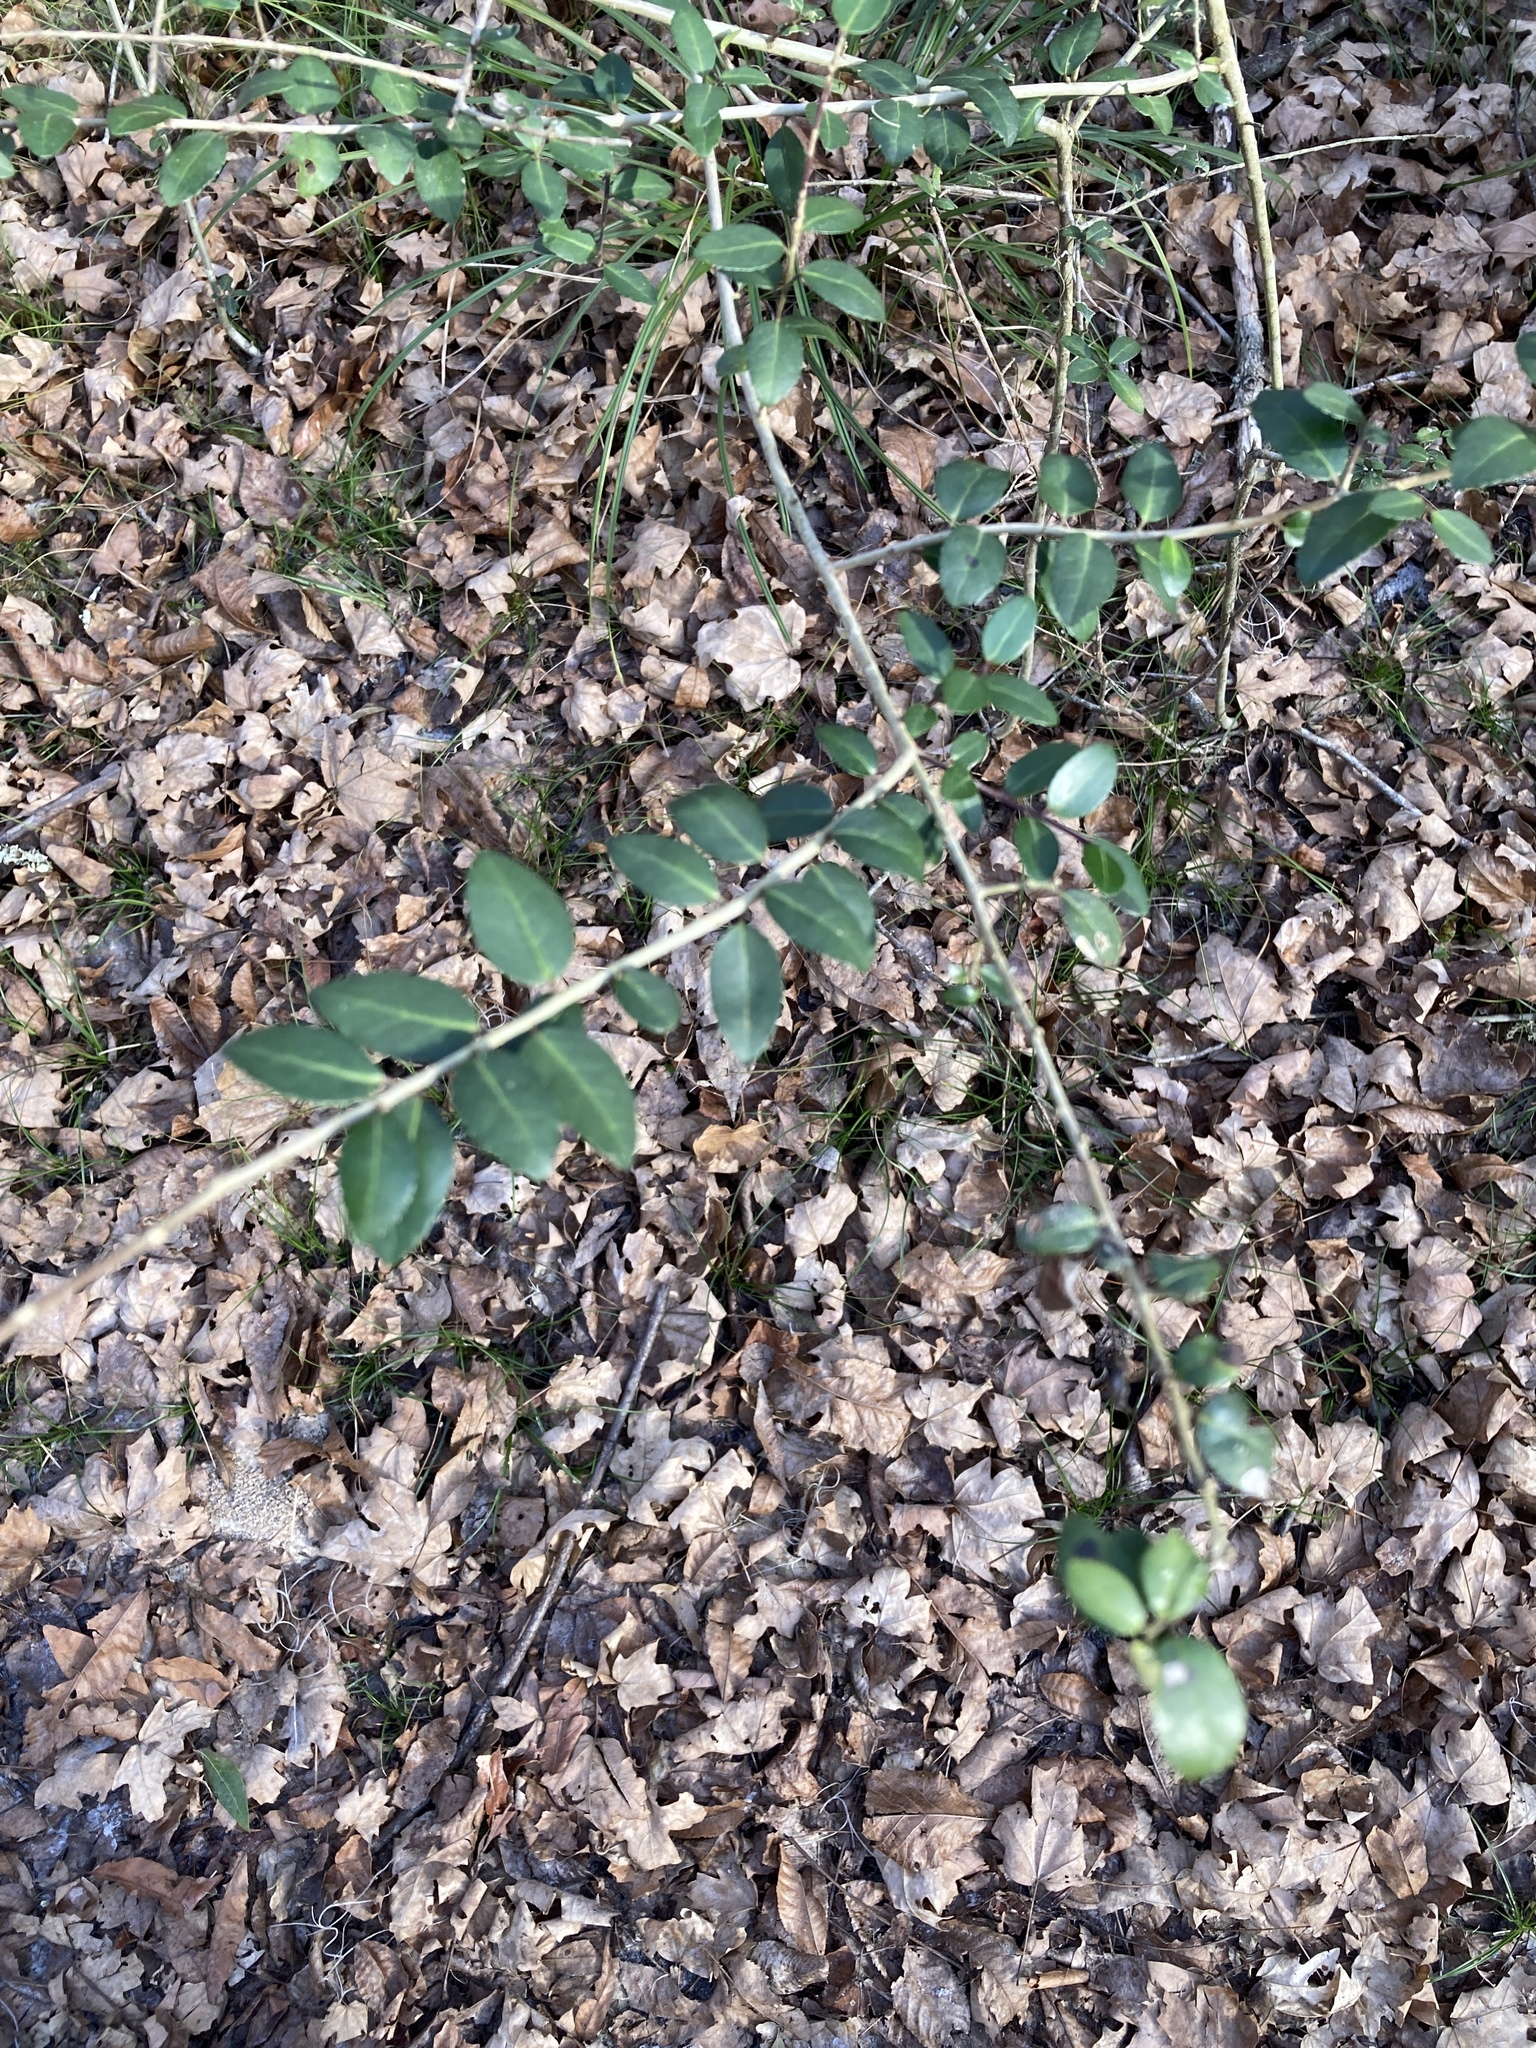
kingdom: Plantae
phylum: Tracheophyta
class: Magnoliopsida
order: Aquifoliales
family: Aquifoliaceae
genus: Ilex
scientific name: Ilex vomitoria
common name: Yaupon holly
